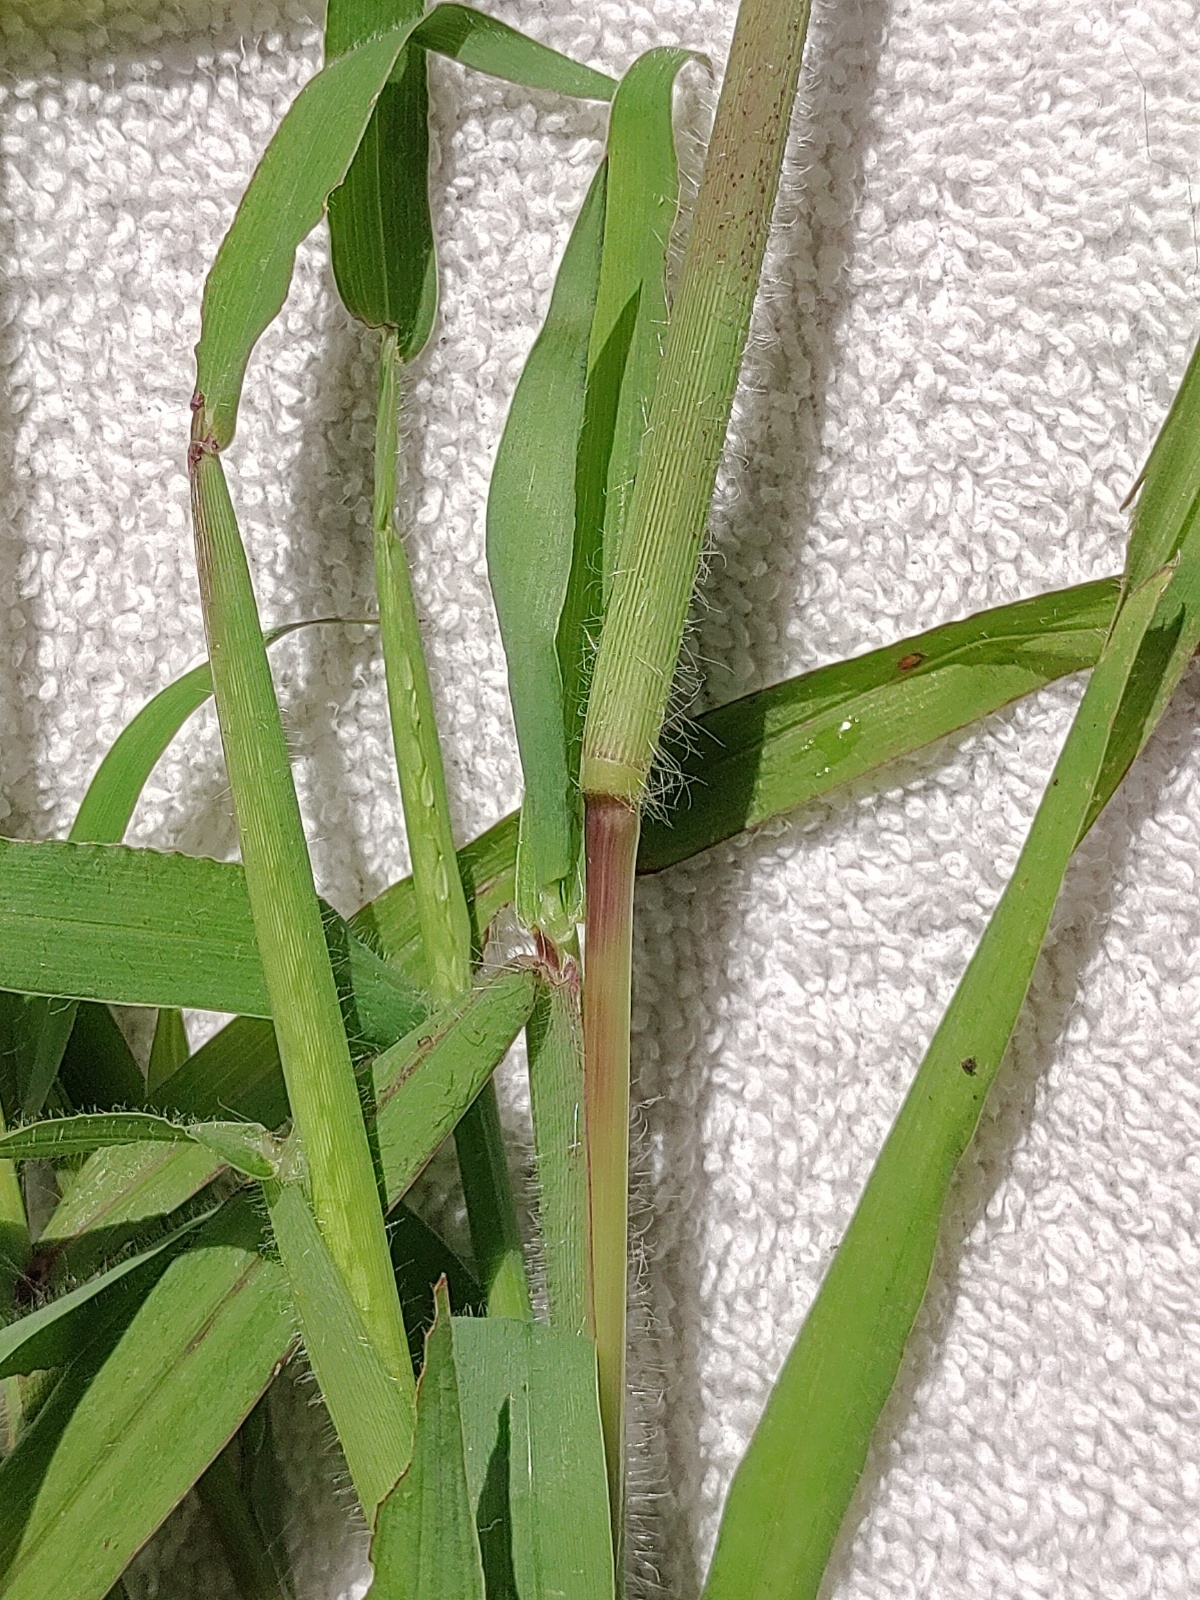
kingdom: Plantae
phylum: Tracheophyta
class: Liliopsida
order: Poales
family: Poaceae
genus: Digitaria
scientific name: Digitaria sanguinalis
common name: Hairy crabgrass
